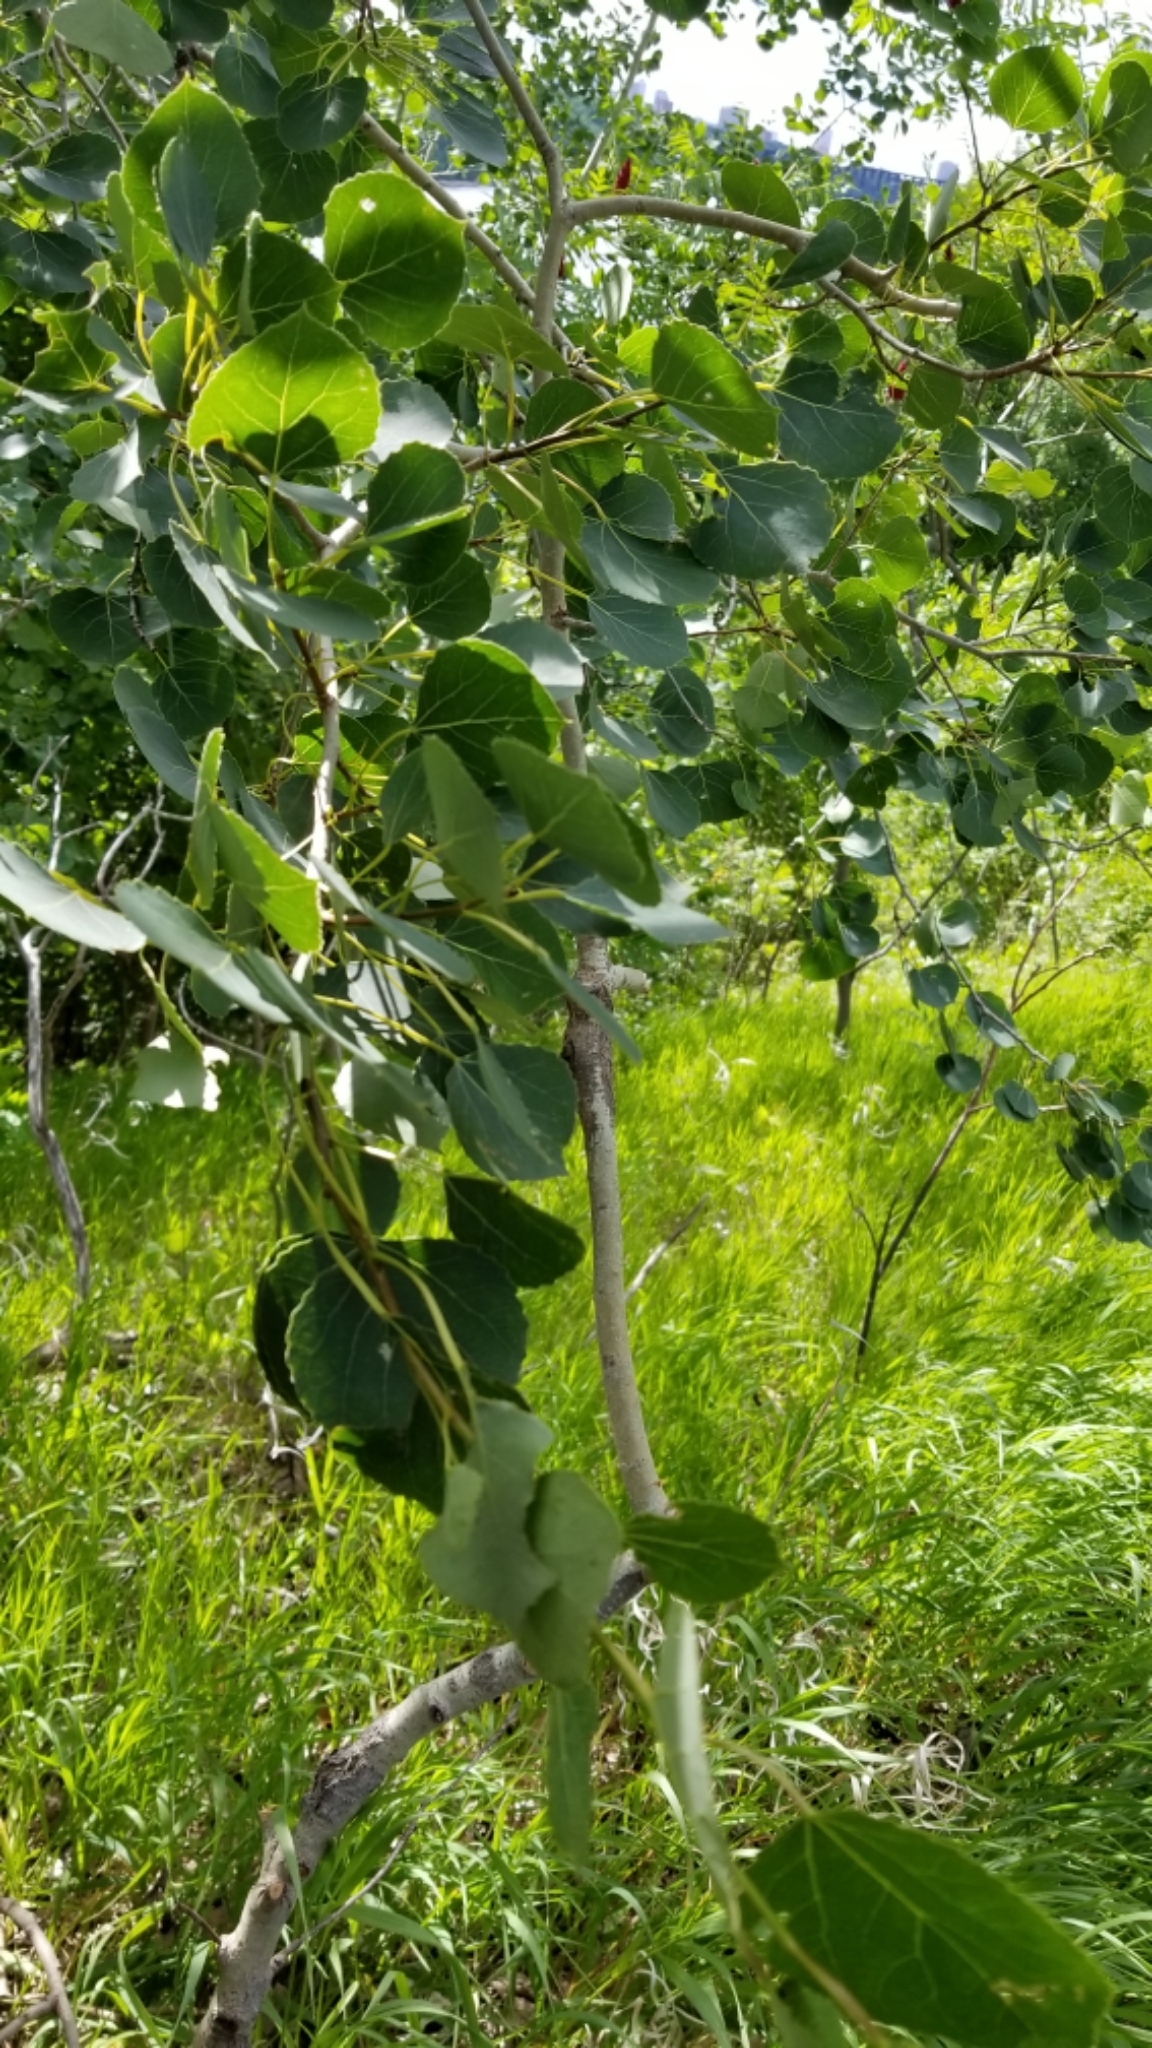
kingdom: Plantae
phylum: Tracheophyta
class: Magnoliopsida
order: Malpighiales
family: Salicaceae
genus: Populus
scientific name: Populus tremuloides
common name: Quaking aspen
